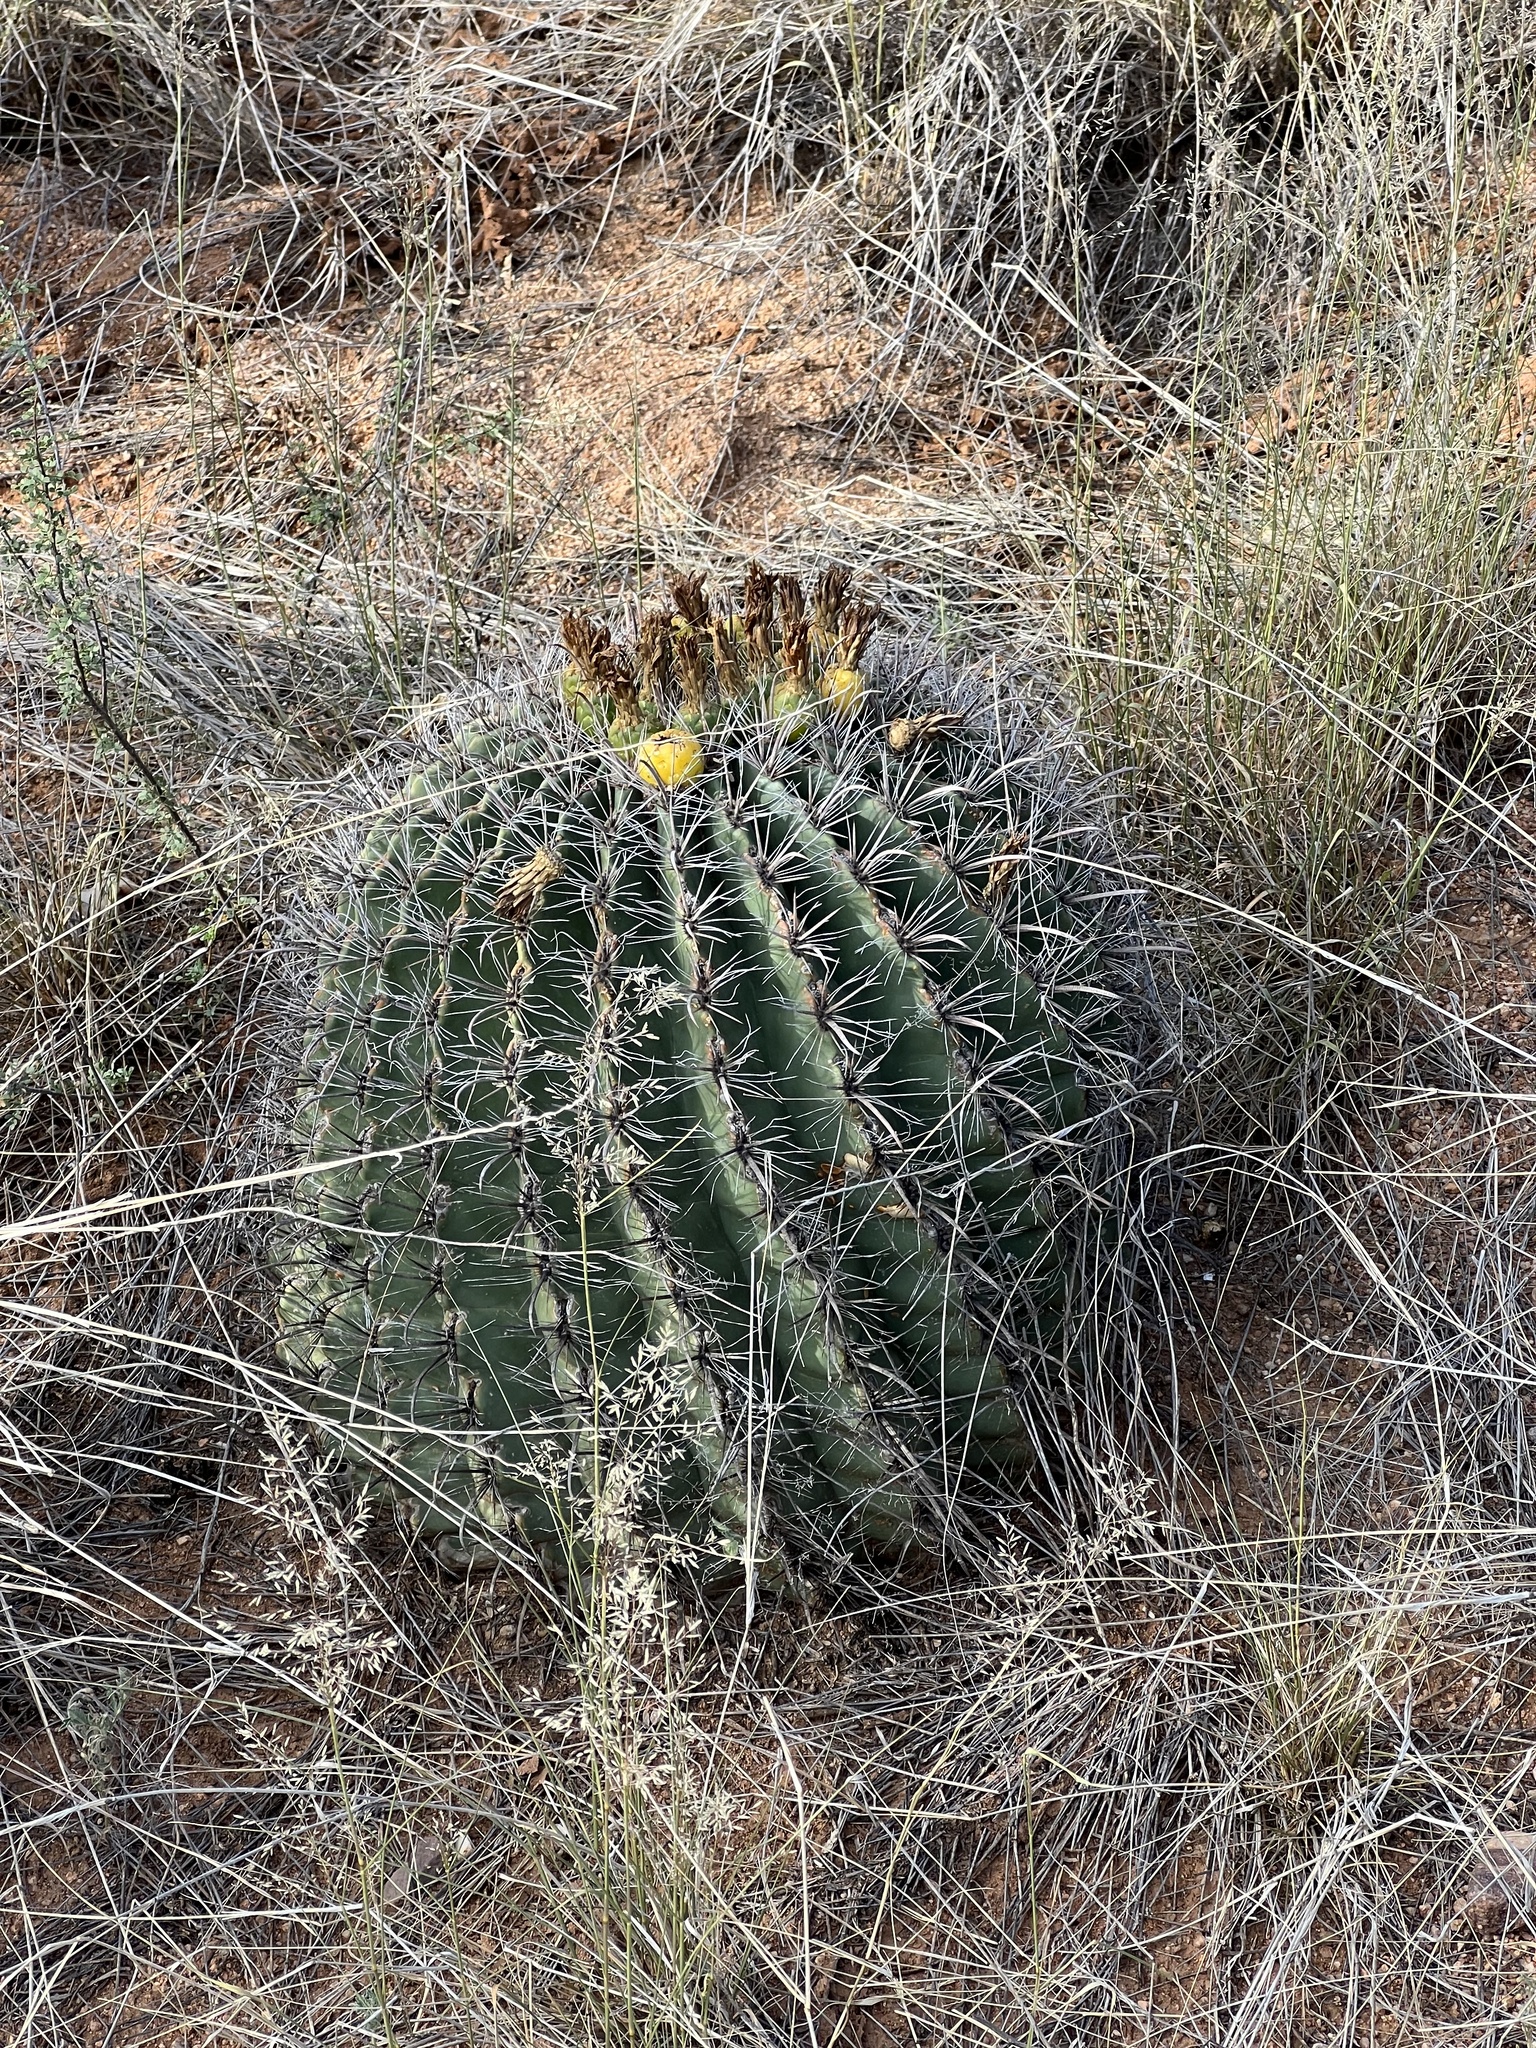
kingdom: Plantae
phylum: Tracheophyta
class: Magnoliopsida
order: Caryophyllales
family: Cactaceae
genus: Ferocactus
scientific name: Ferocactus wislizeni
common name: Candy barrel cactus
